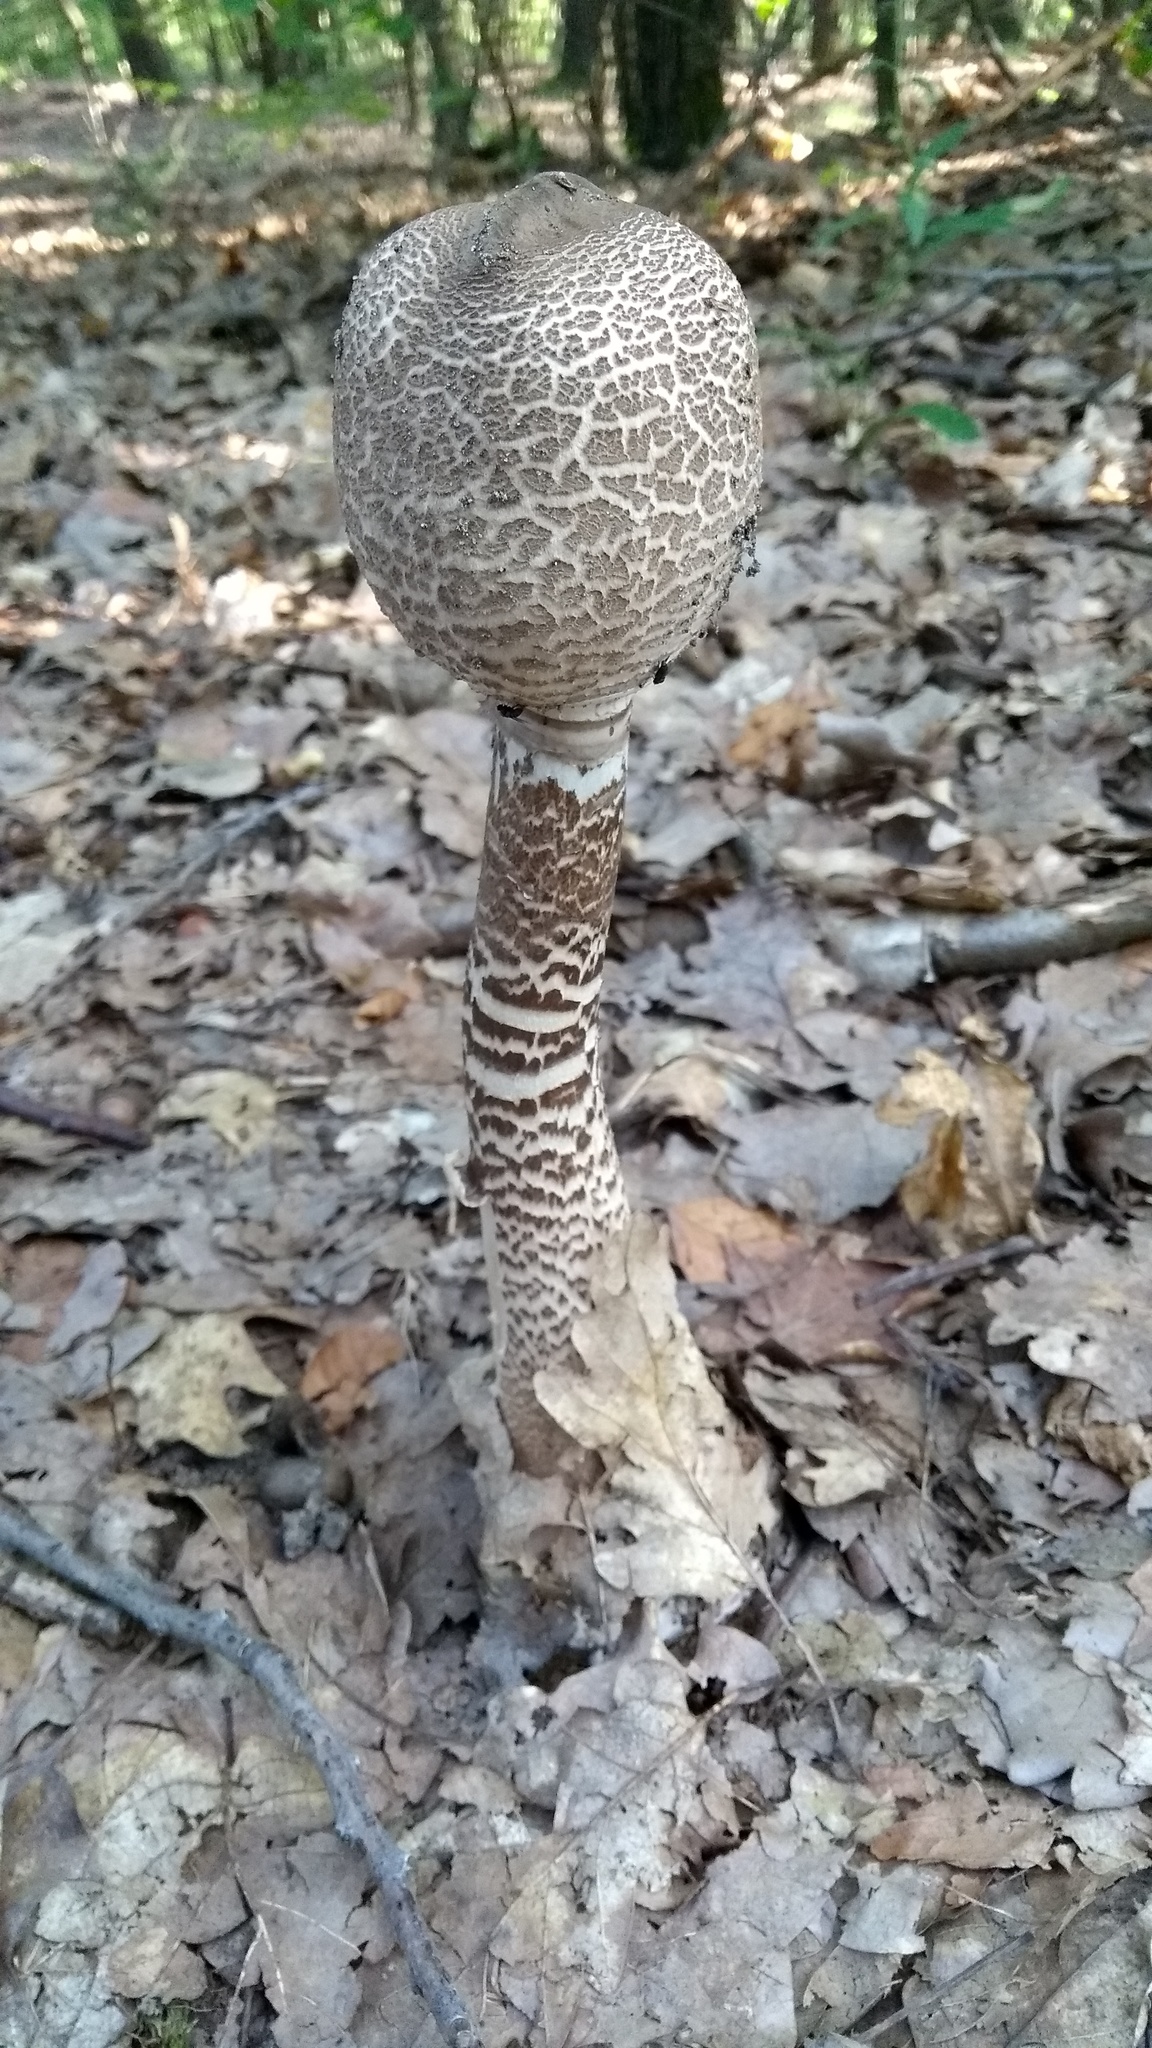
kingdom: Fungi
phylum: Basidiomycota
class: Agaricomycetes
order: Agaricales
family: Agaricaceae
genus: Macrolepiota
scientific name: Macrolepiota procera
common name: Parasol
